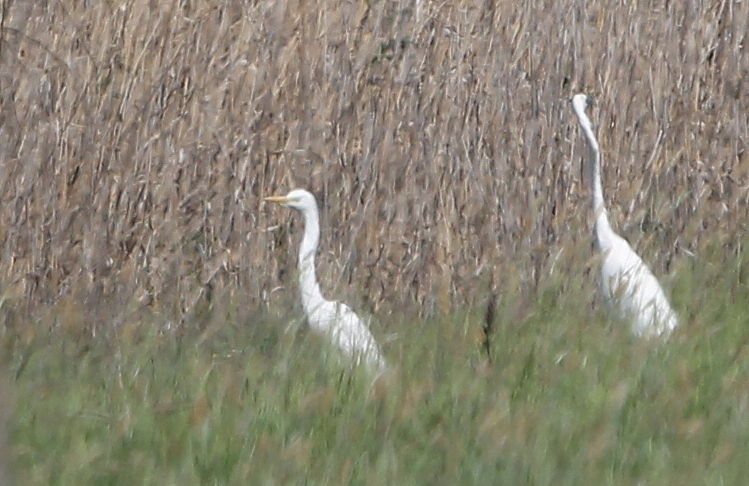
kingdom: Animalia
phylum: Chordata
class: Aves
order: Pelecaniformes
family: Ardeidae
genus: Ardea
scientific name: Ardea alba
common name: Great egret
